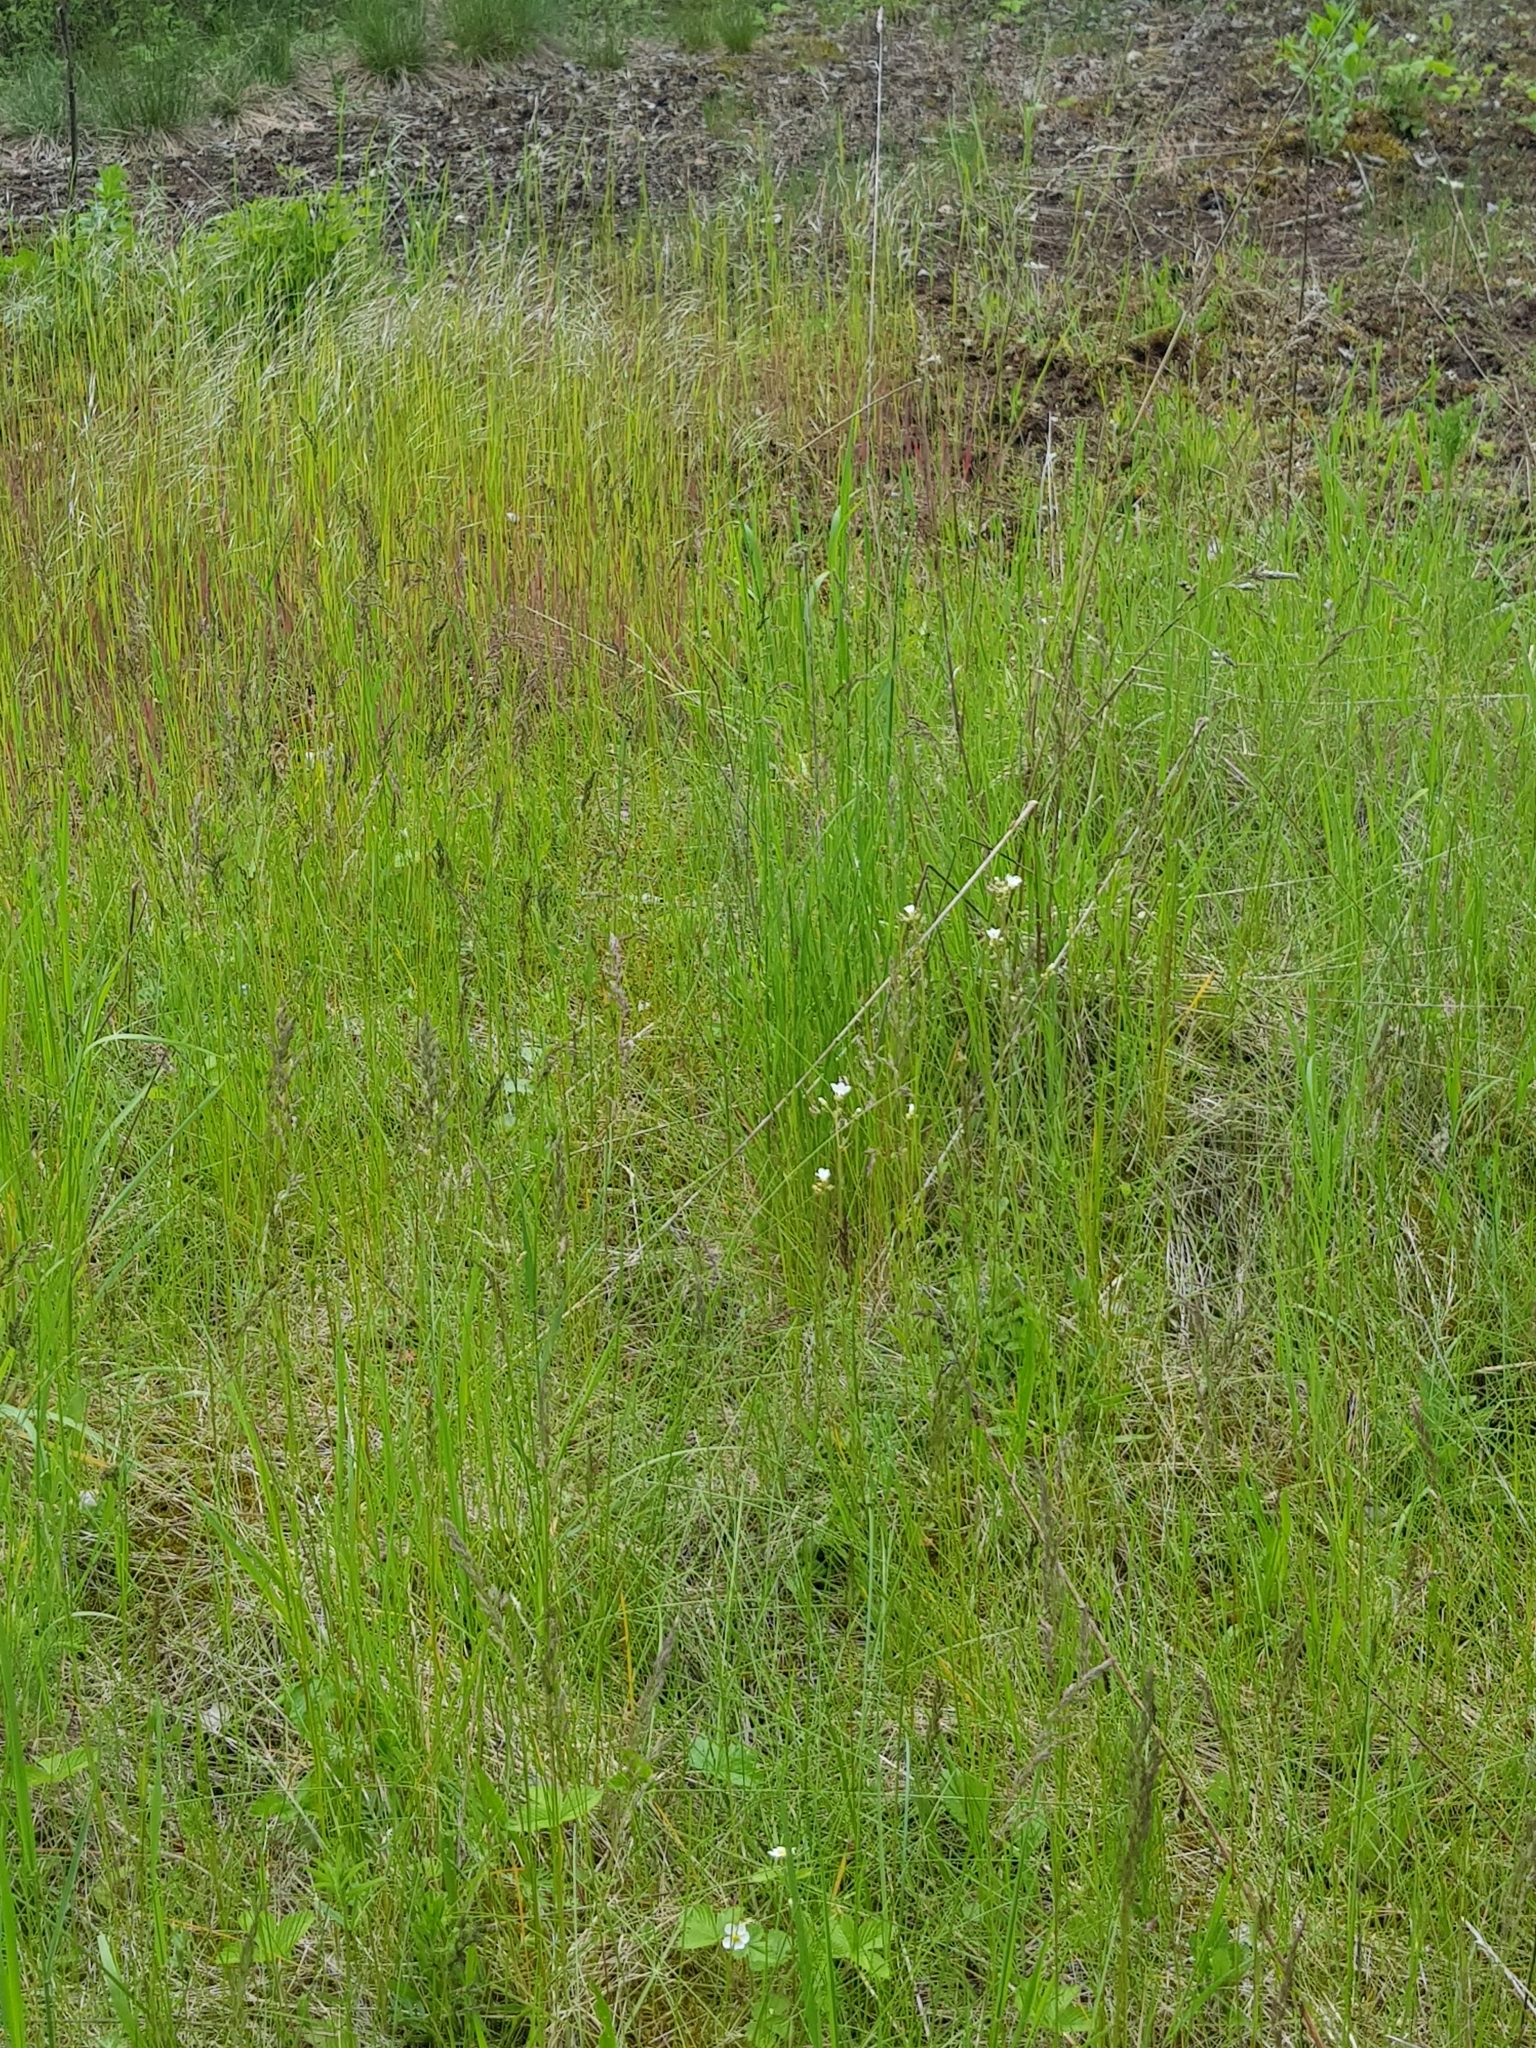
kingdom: Plantae
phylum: Tracheophyta
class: Magnoliopsida
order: Saxifragales
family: Saxifragaceae
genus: Saxifraga
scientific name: Saxifraga granulata
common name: Meadow saxifrage
